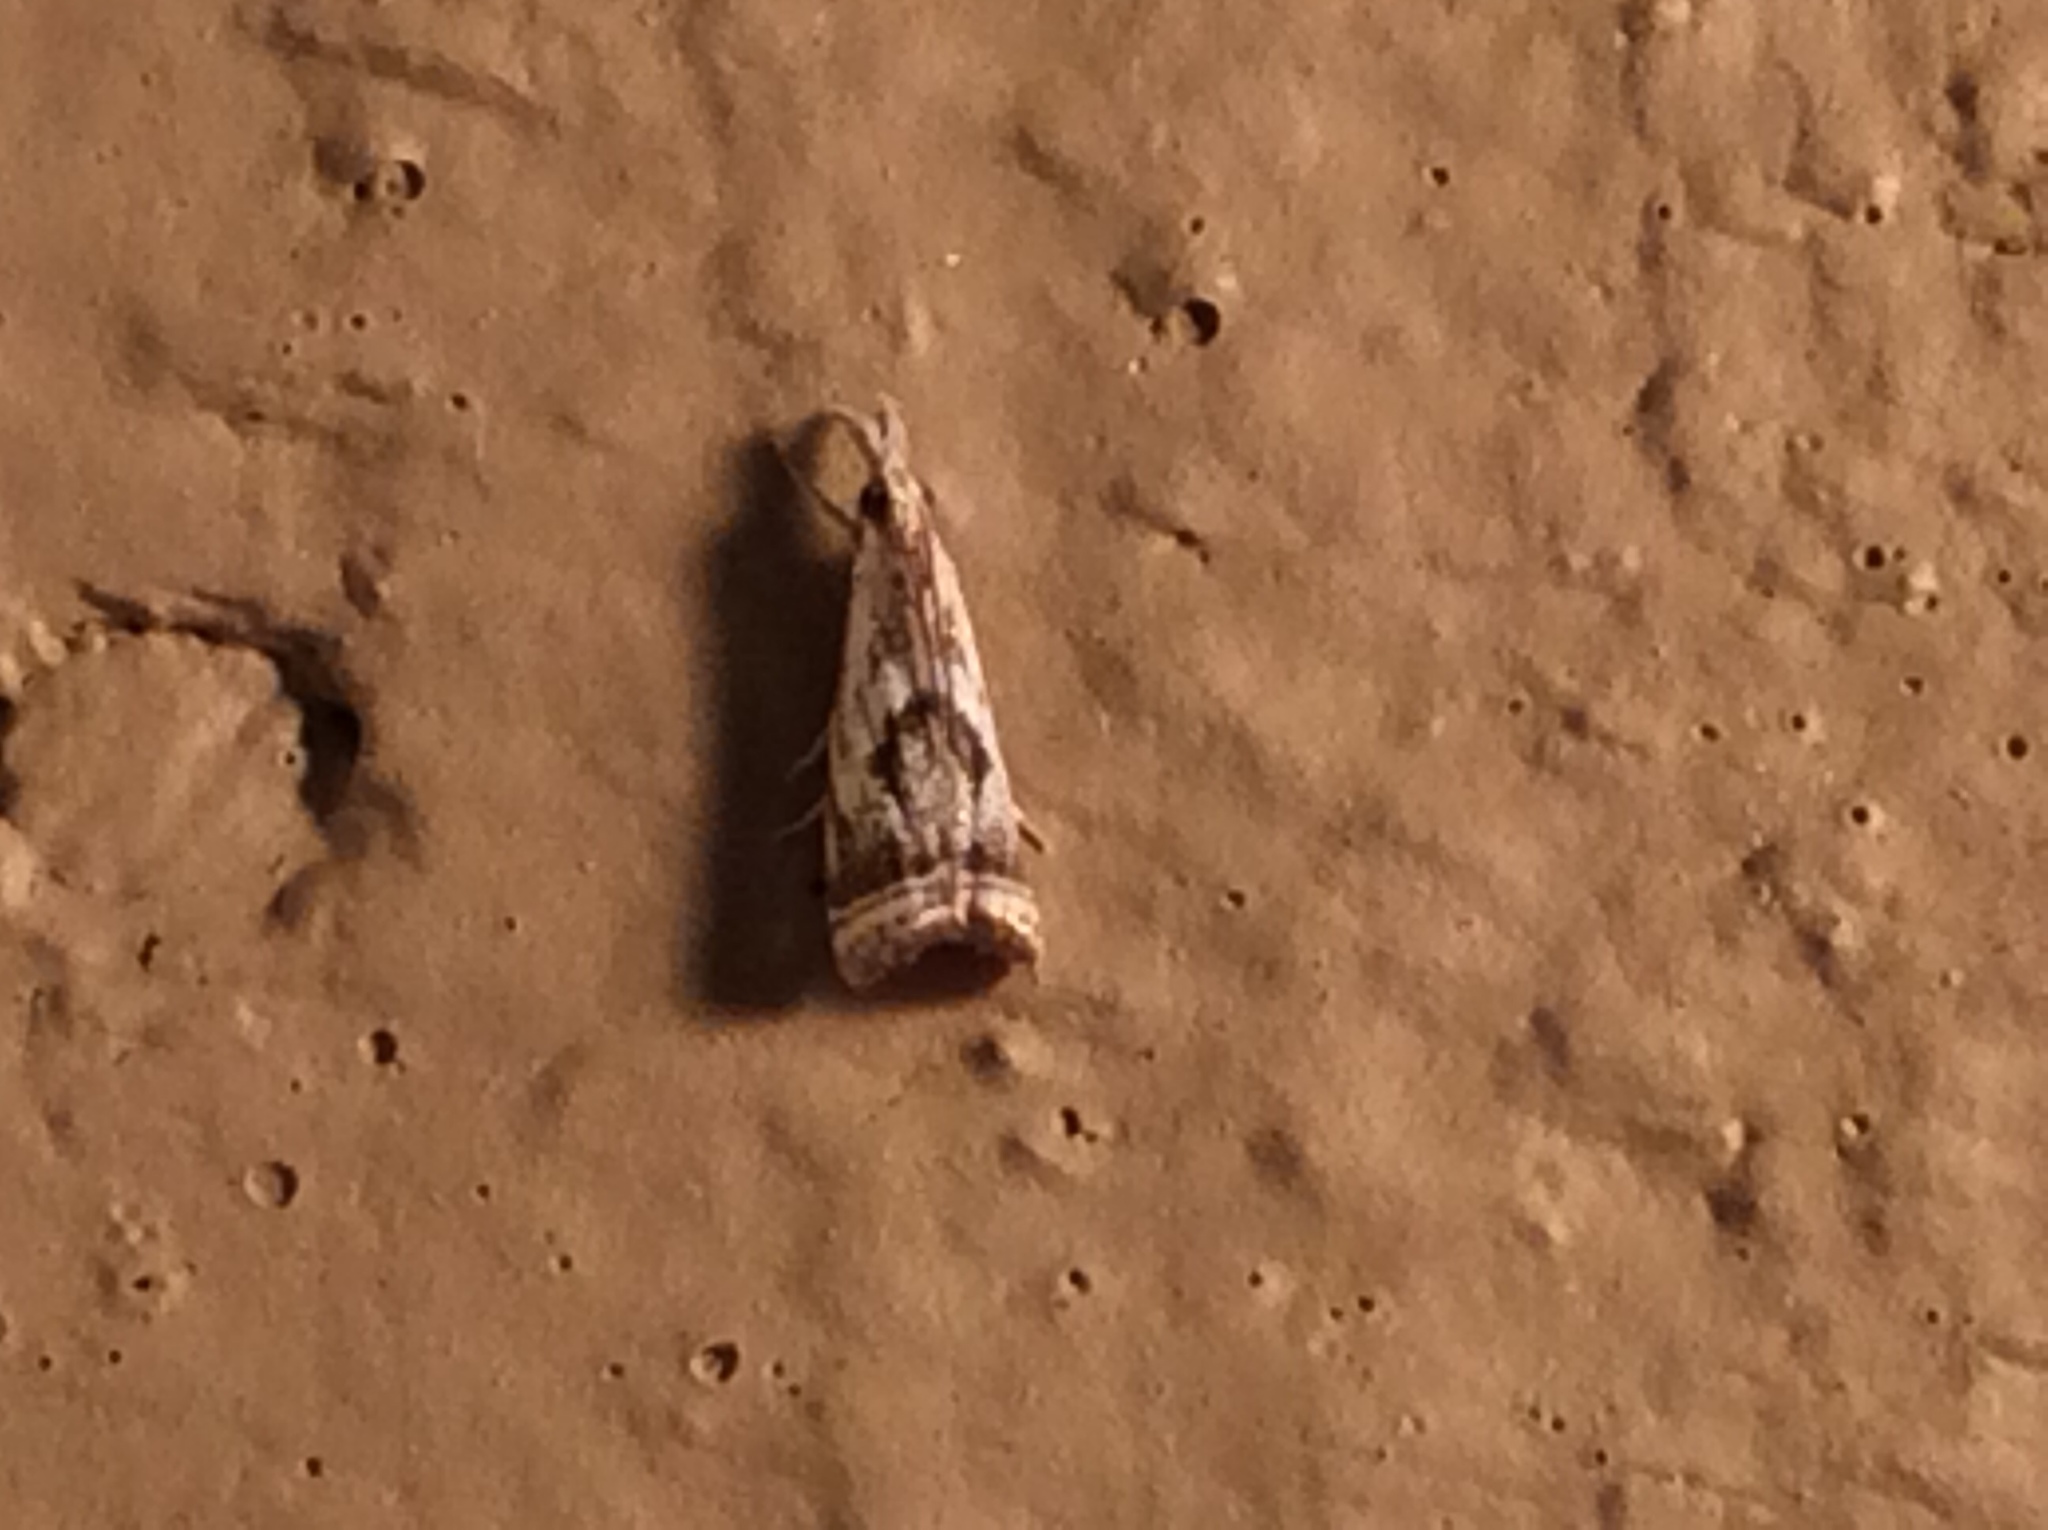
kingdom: Animalia
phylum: Arthropoda
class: Insecta
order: Lepidoptera
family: Crambidae
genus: Microcrambus
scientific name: Microcrambus elegans
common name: Elegant grass-veneer
